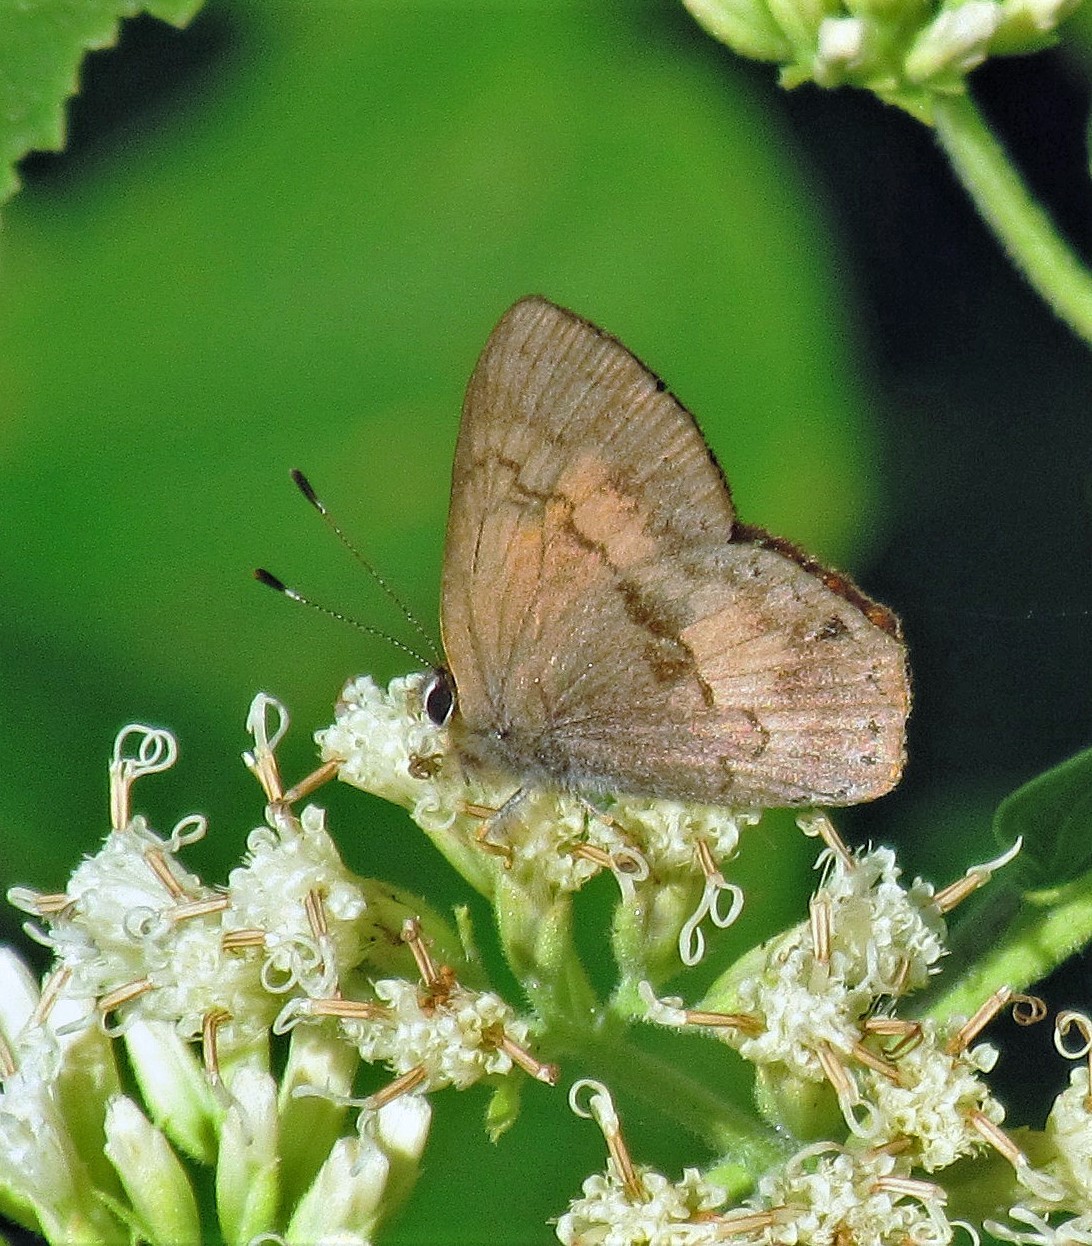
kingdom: Animalia
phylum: Arthropoda
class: Insecta
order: Lepidoptera
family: Lycaenidae
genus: Euselasia
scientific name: Euselasia eucerus
